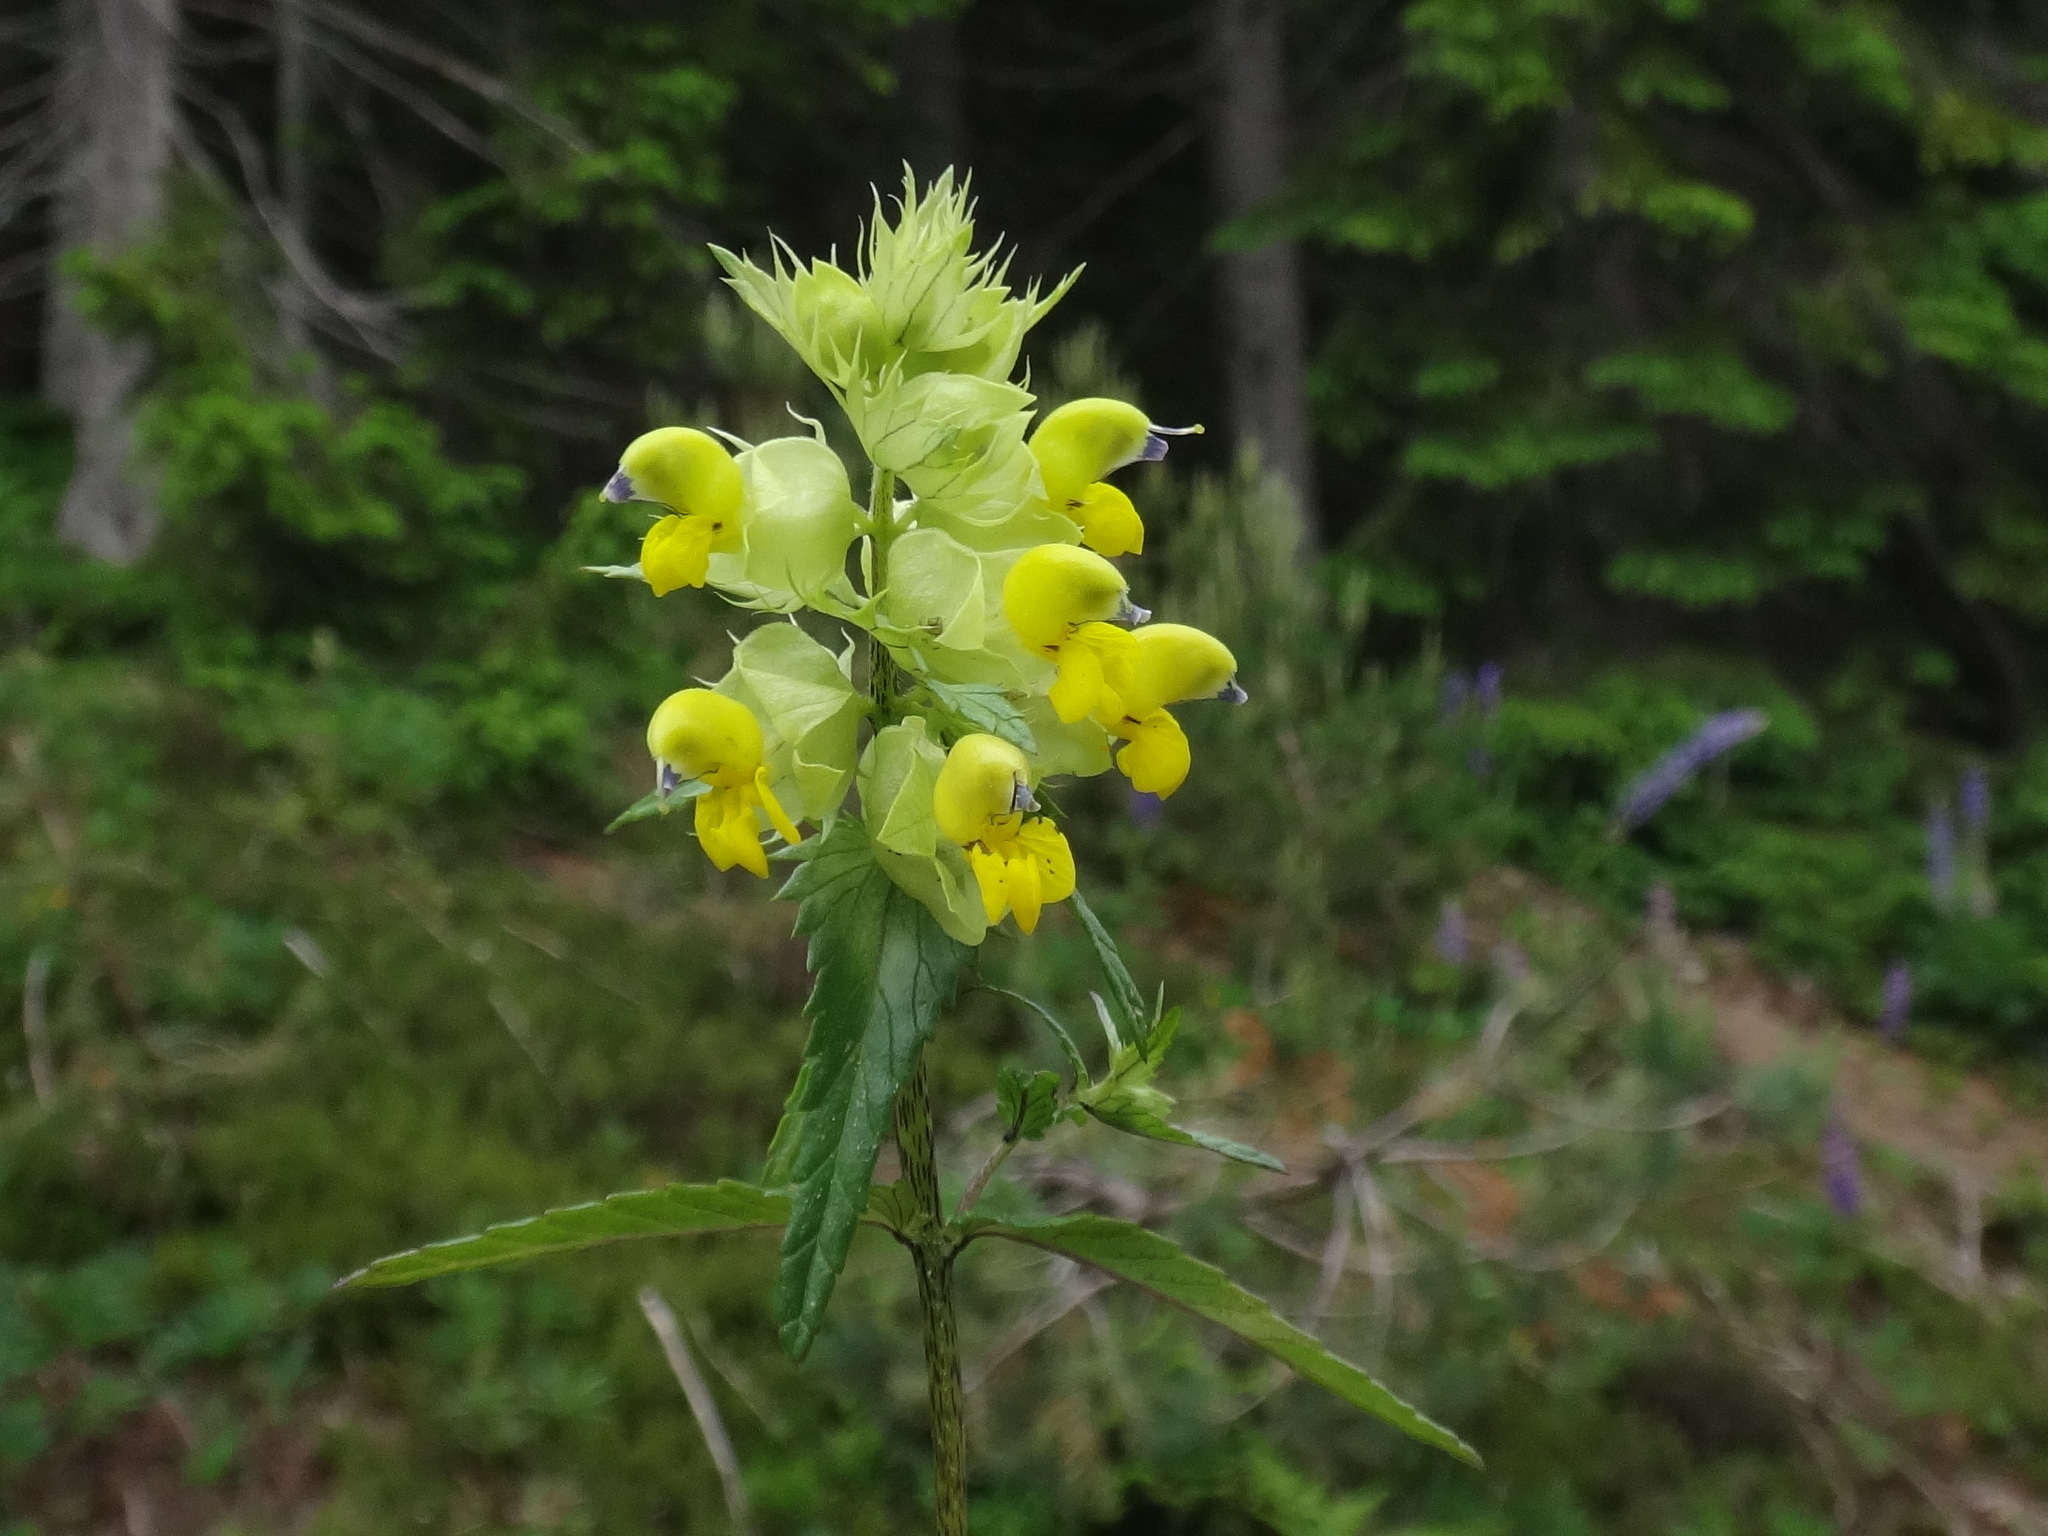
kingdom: Plantae
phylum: Tracheophyta
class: Magnoliopsida
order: Lamiales
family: Orobanchaceae
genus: Rhinanthus
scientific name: Rhinanthus glacialis
